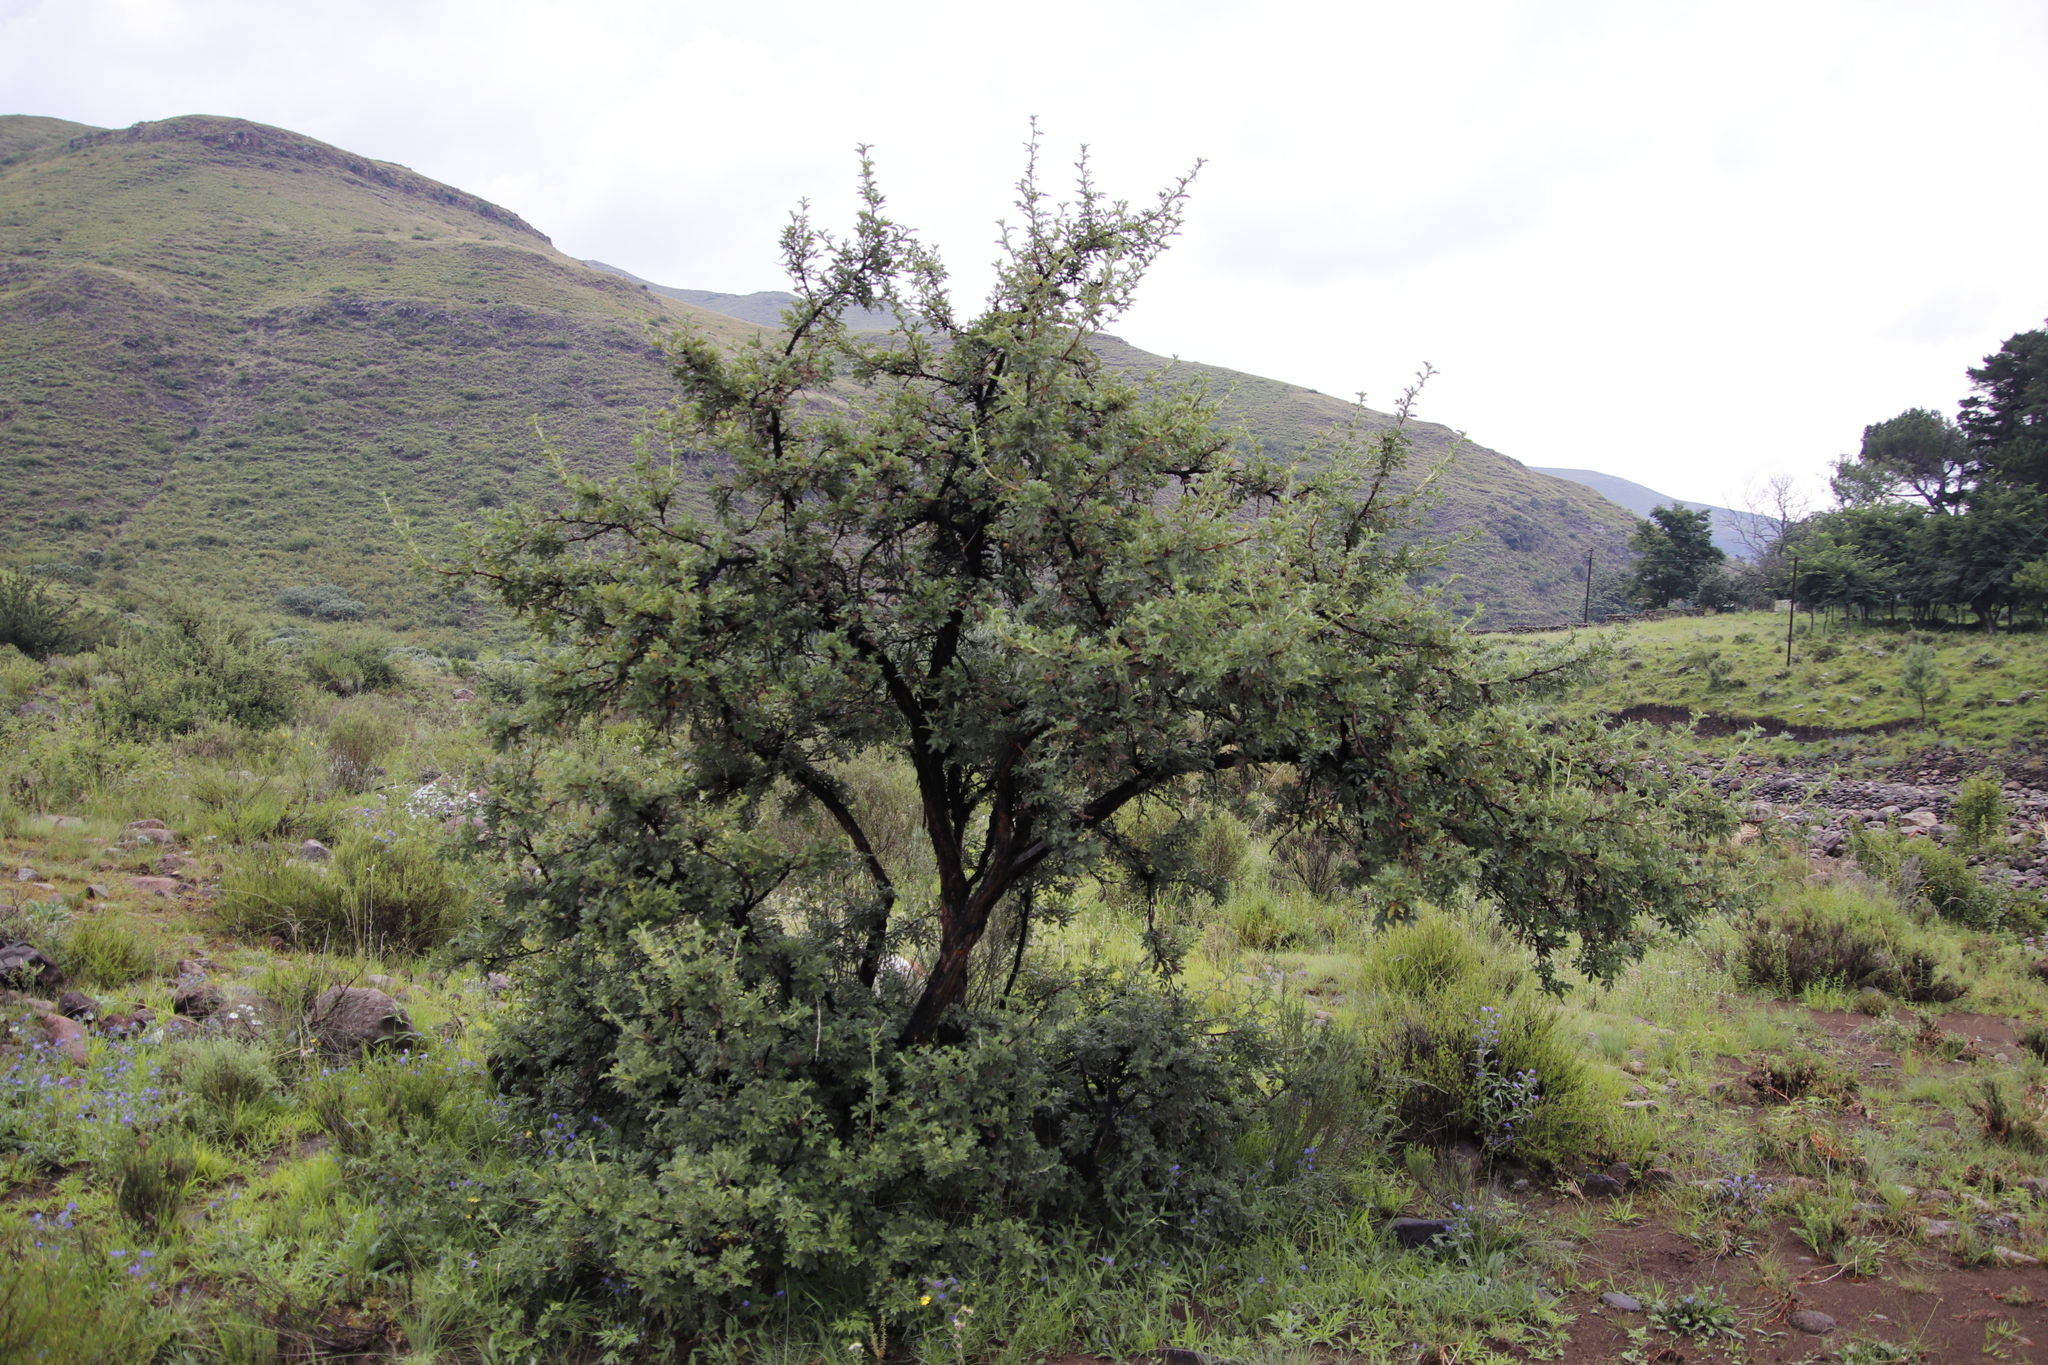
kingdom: Plantae
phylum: Tracheophyta
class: Magnoliopsida
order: Rosales
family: Rosaceae
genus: Leucosidea
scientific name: Leucosidea sericea
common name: Oldwood
